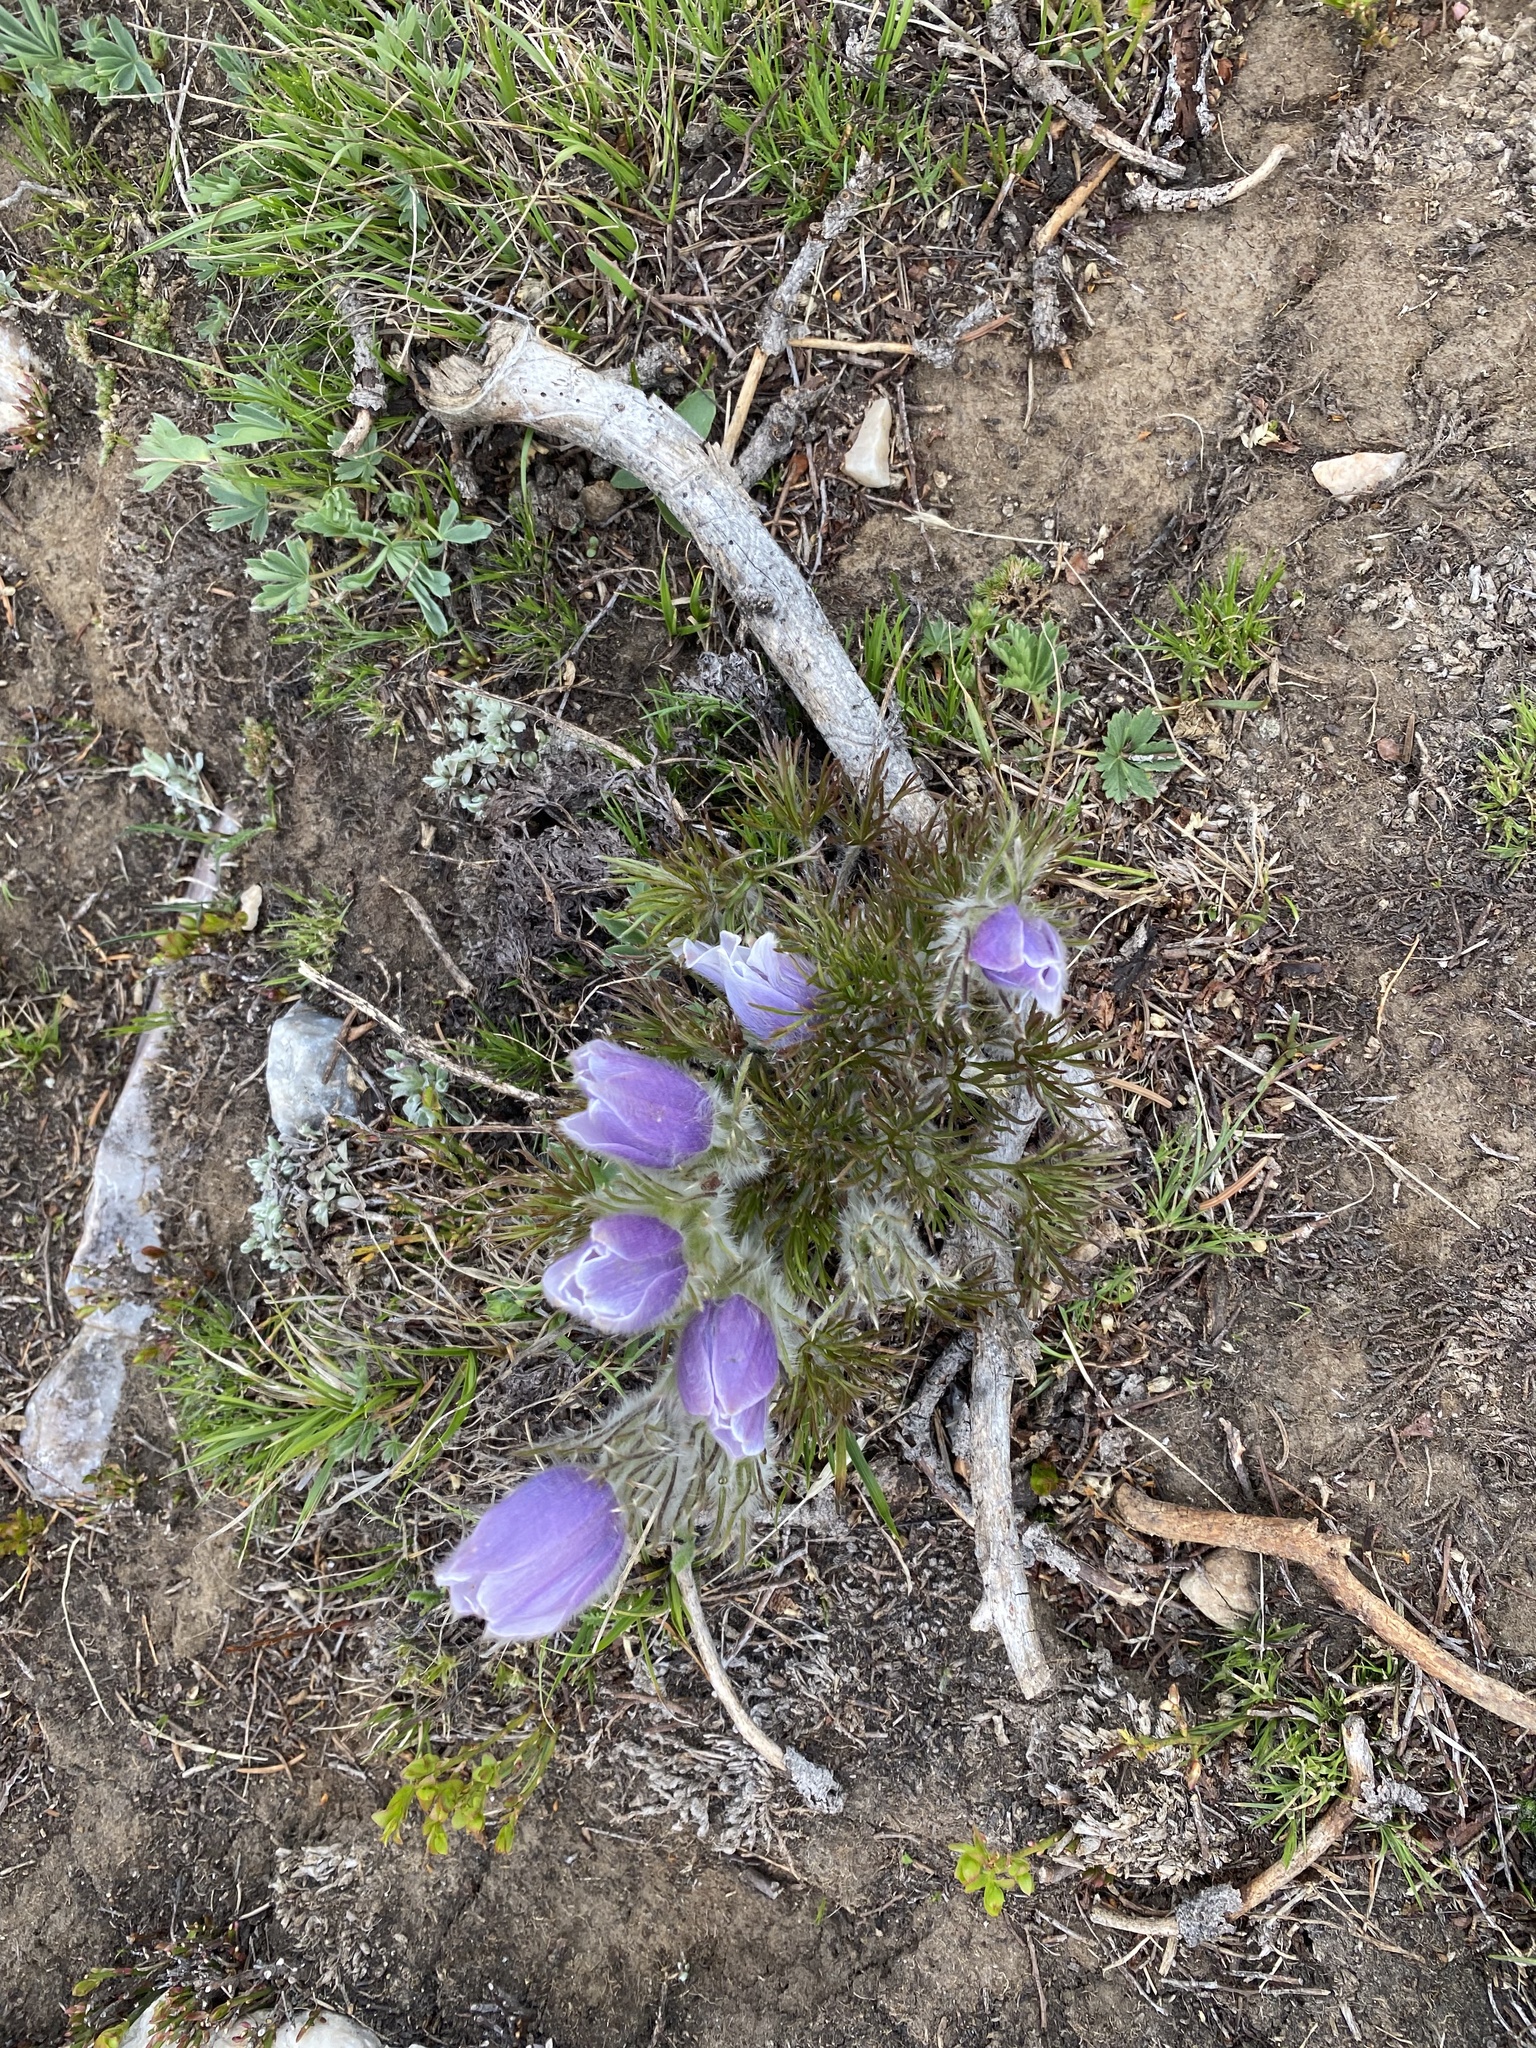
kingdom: Plantae
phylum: Tracheophyta
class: Magnoliopsida
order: Ranunculales
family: Ranunculaceae
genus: Pulsatilla
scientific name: Pulsatilla nuttalliana
